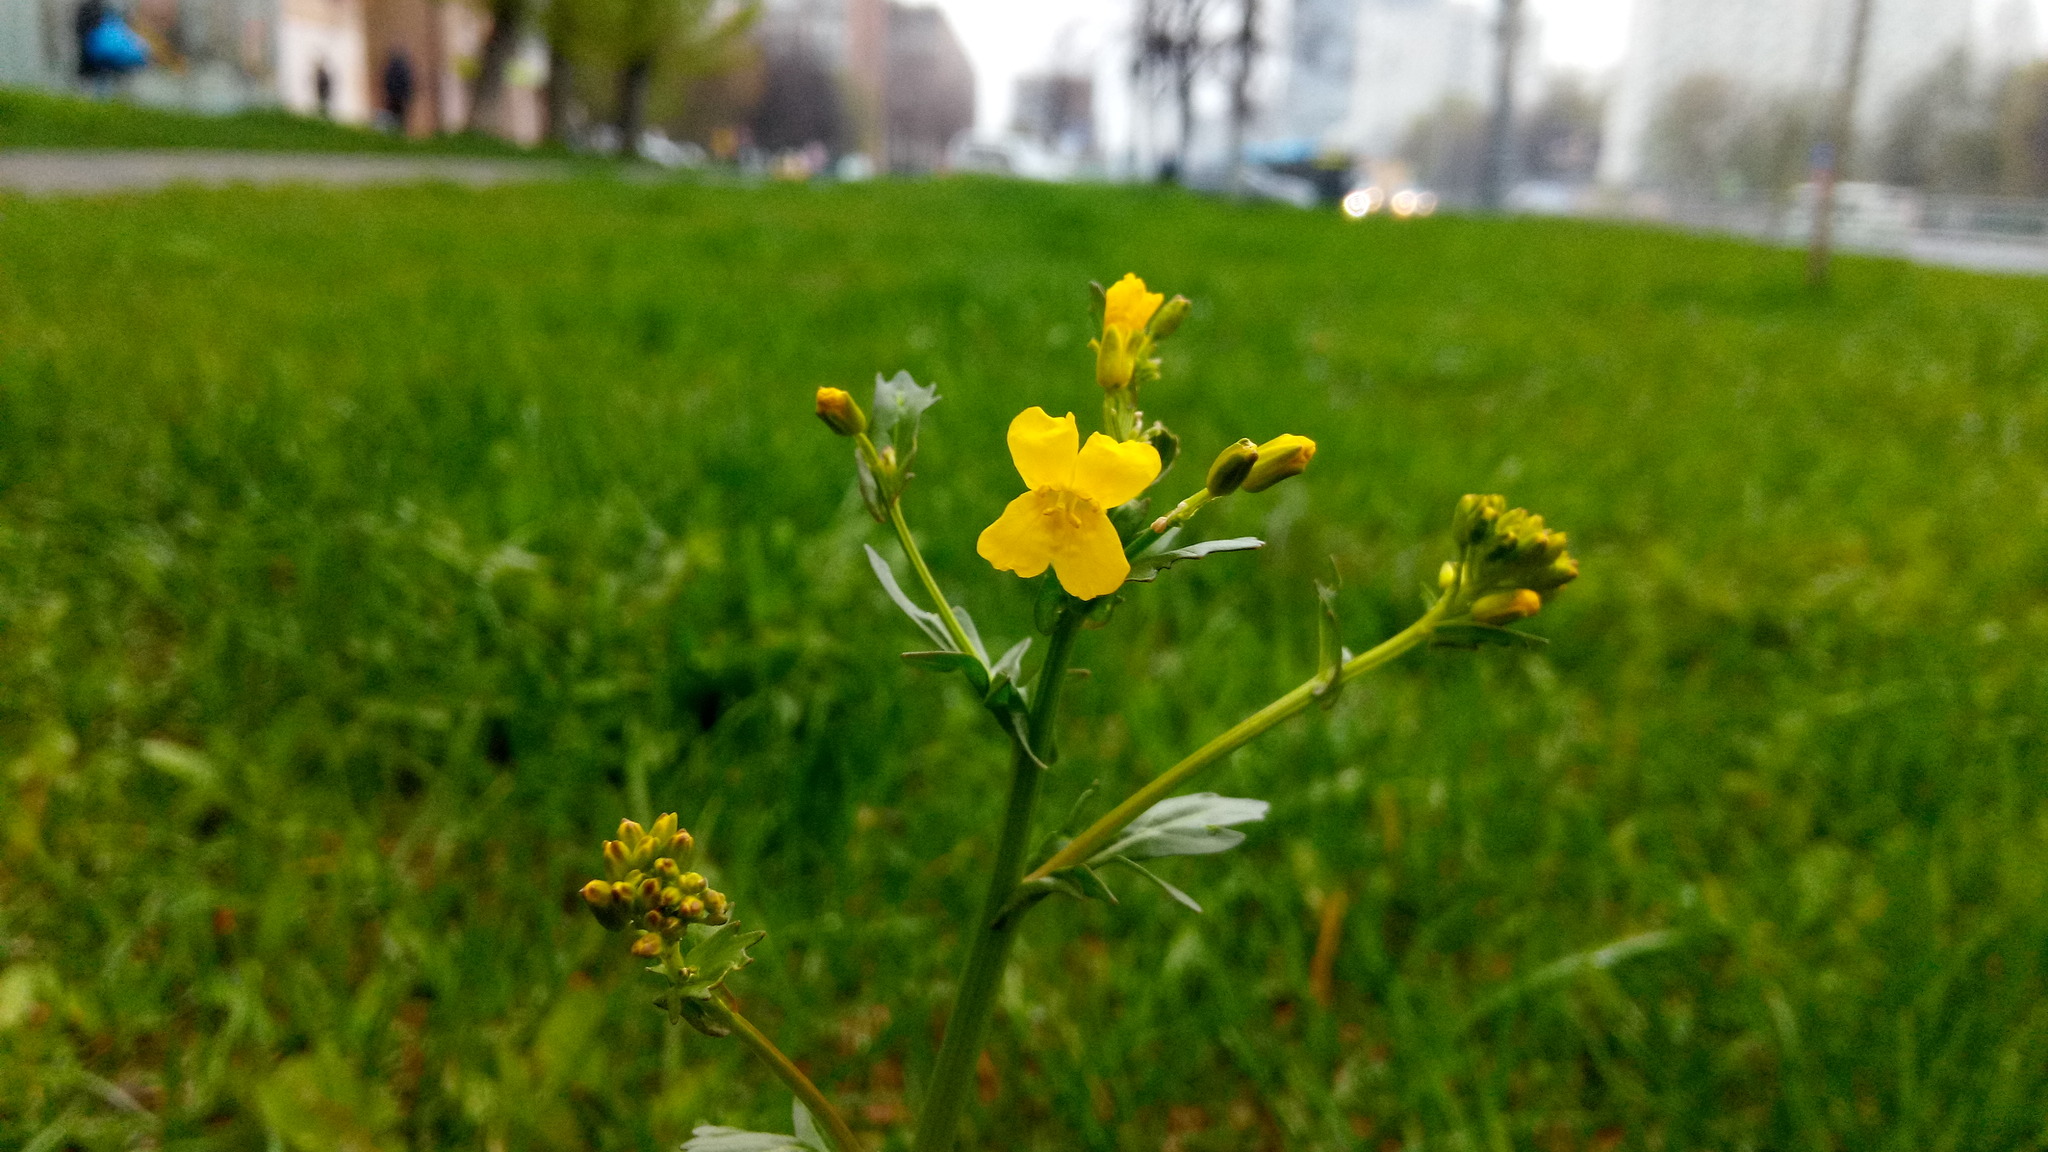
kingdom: Plantae
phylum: Tracheophyta
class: Magnoliopsida
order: Brassicales
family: Brassicaceae
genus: Barbarea
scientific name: Barbarea vulgaris
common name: Cressy-greens
